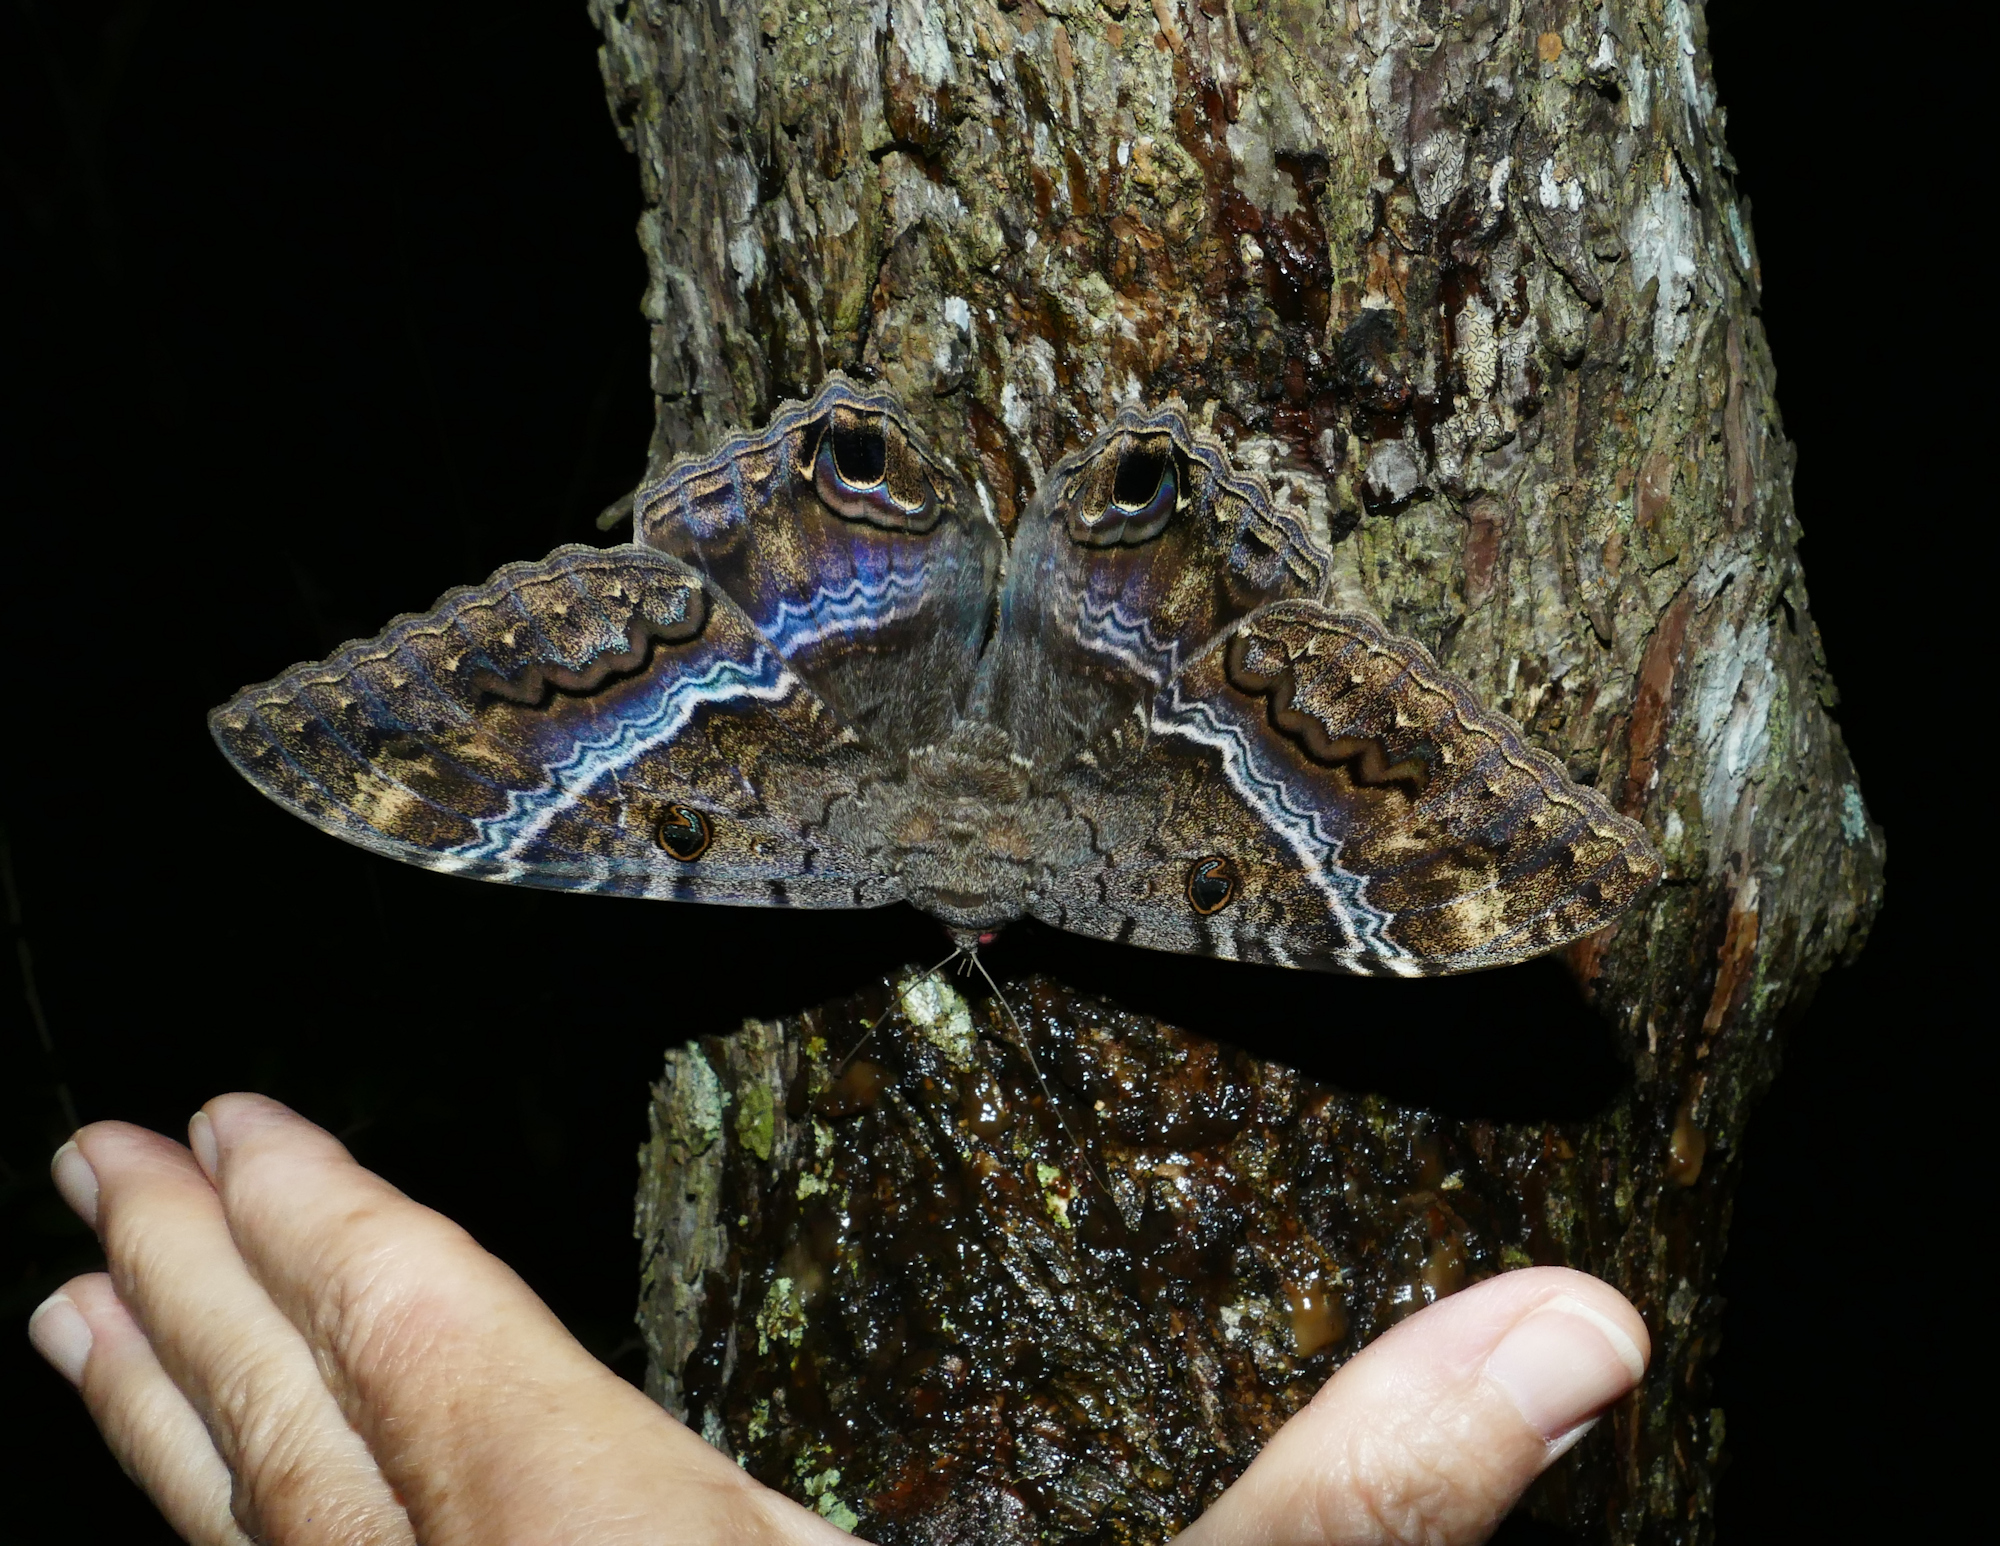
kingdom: Animalia
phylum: Arthropoda
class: Insecta
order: Lepidoptera
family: Erebidae
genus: Ascalapha
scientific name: Ascalapha odorata
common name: Black witch
